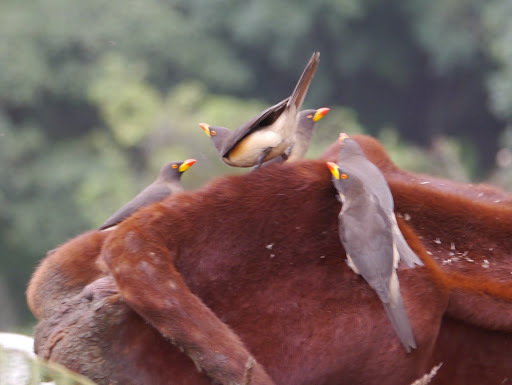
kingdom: Animalia
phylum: Chordata
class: Aves
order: Passeriformes
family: Buphagidae
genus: Buphagus
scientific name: Buphagus africanus
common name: Yellow-billed oxpecker
